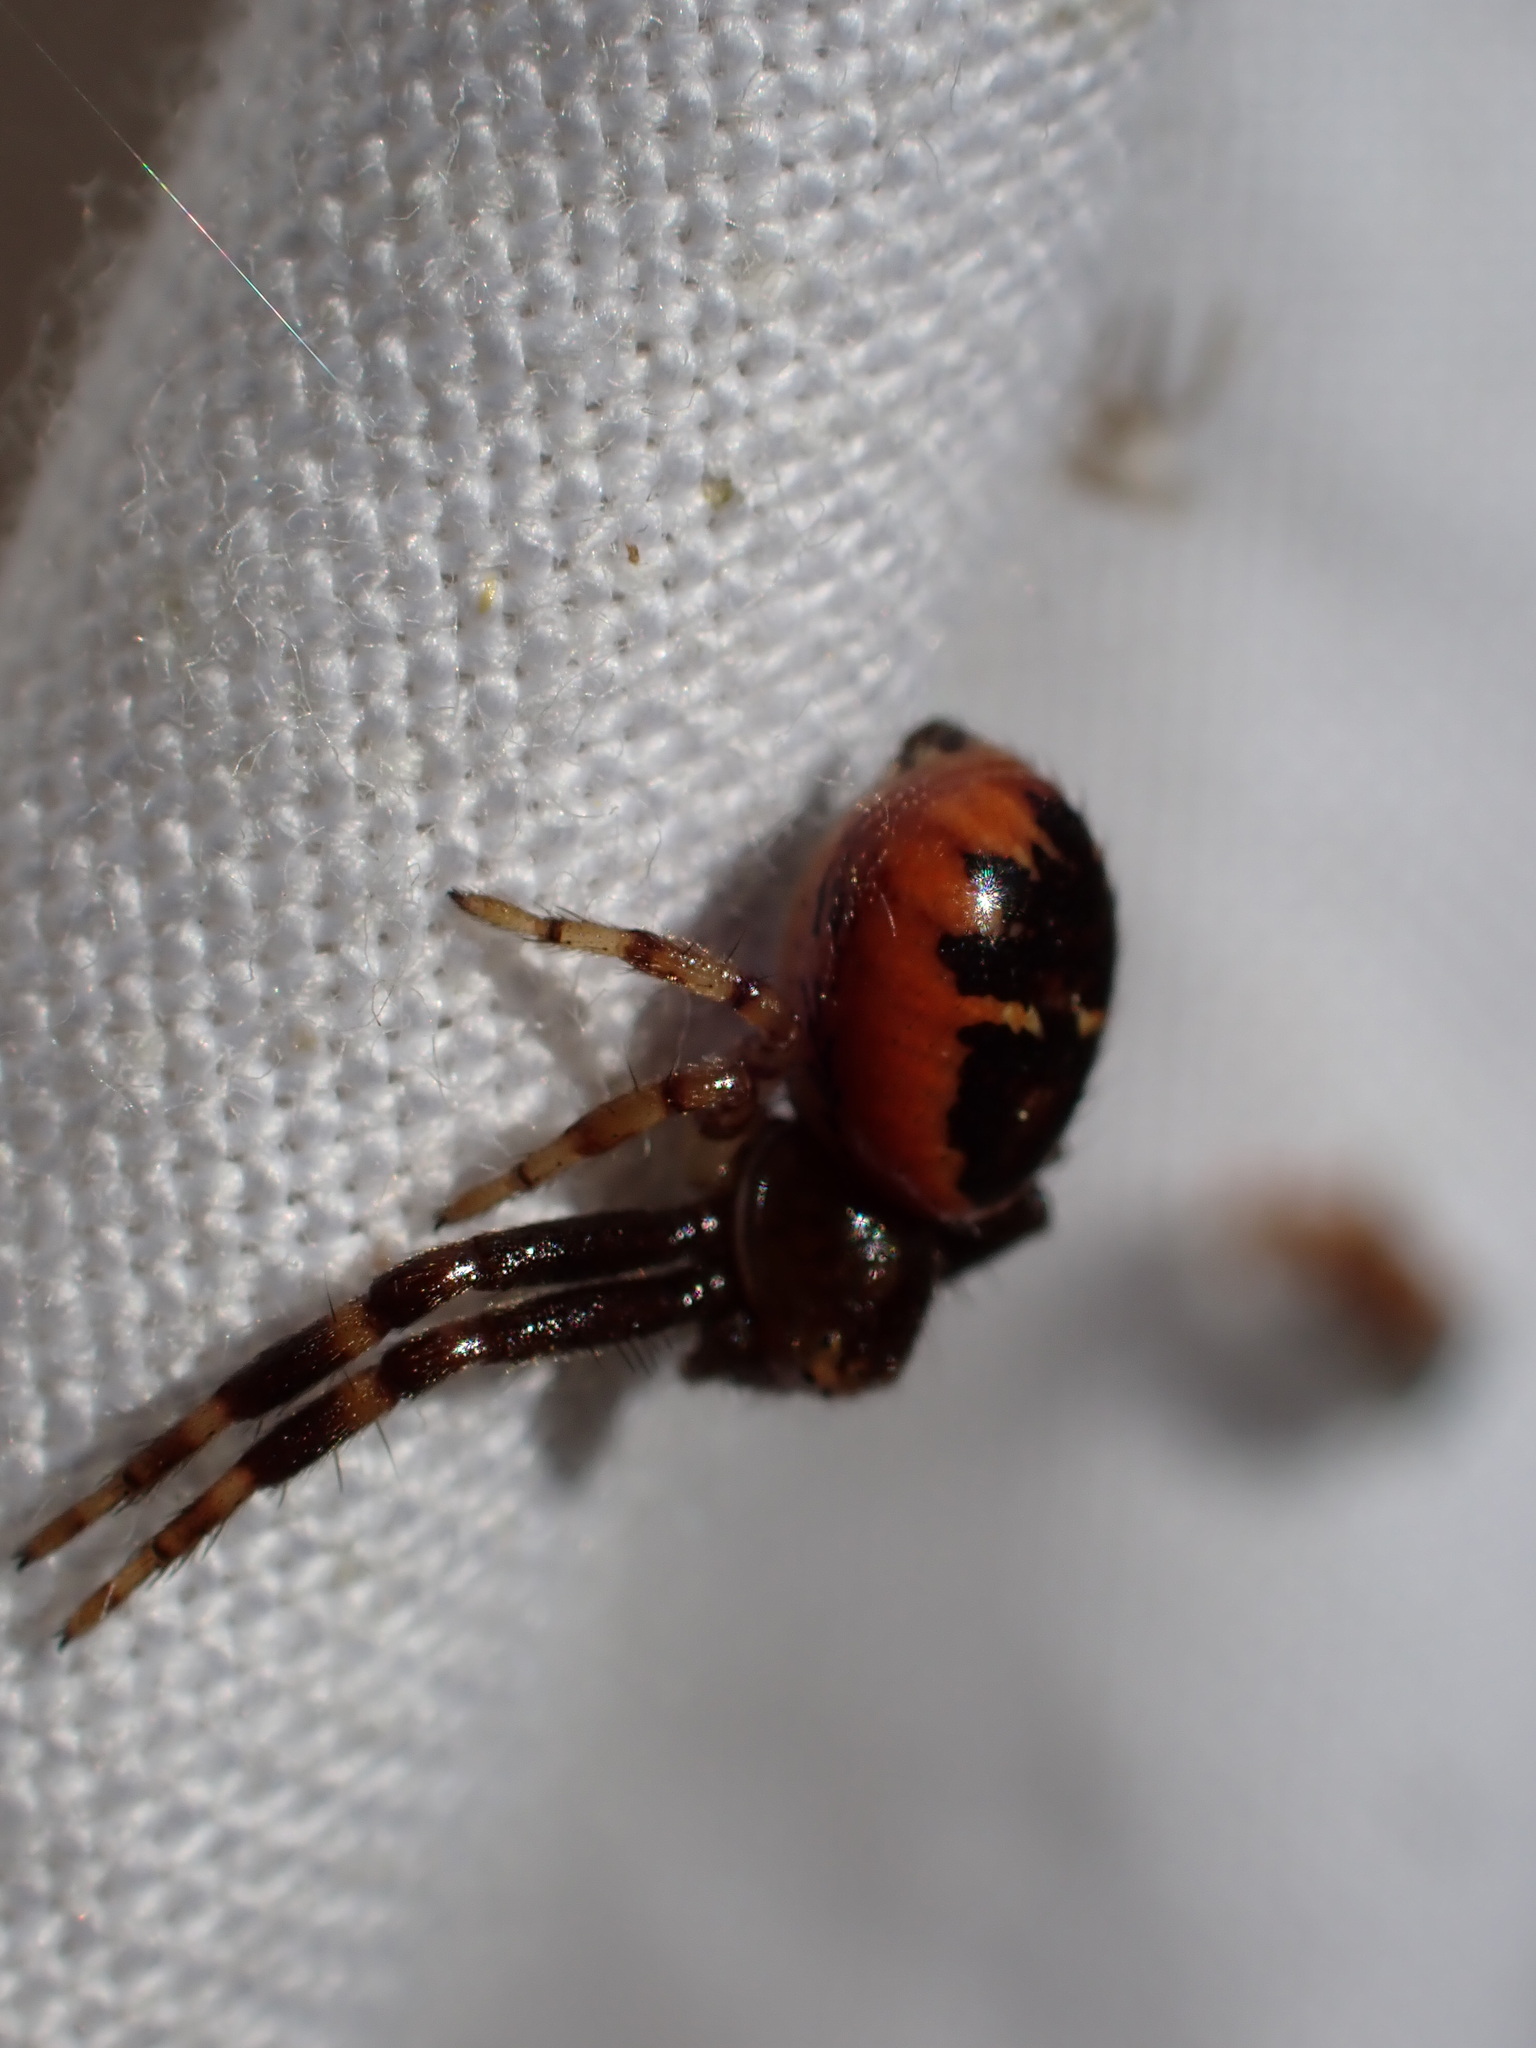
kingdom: Animalia
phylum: Arthropoda
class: Arachnida
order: Araneae
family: Thomisidae
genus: Synema
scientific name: Synema globosum
